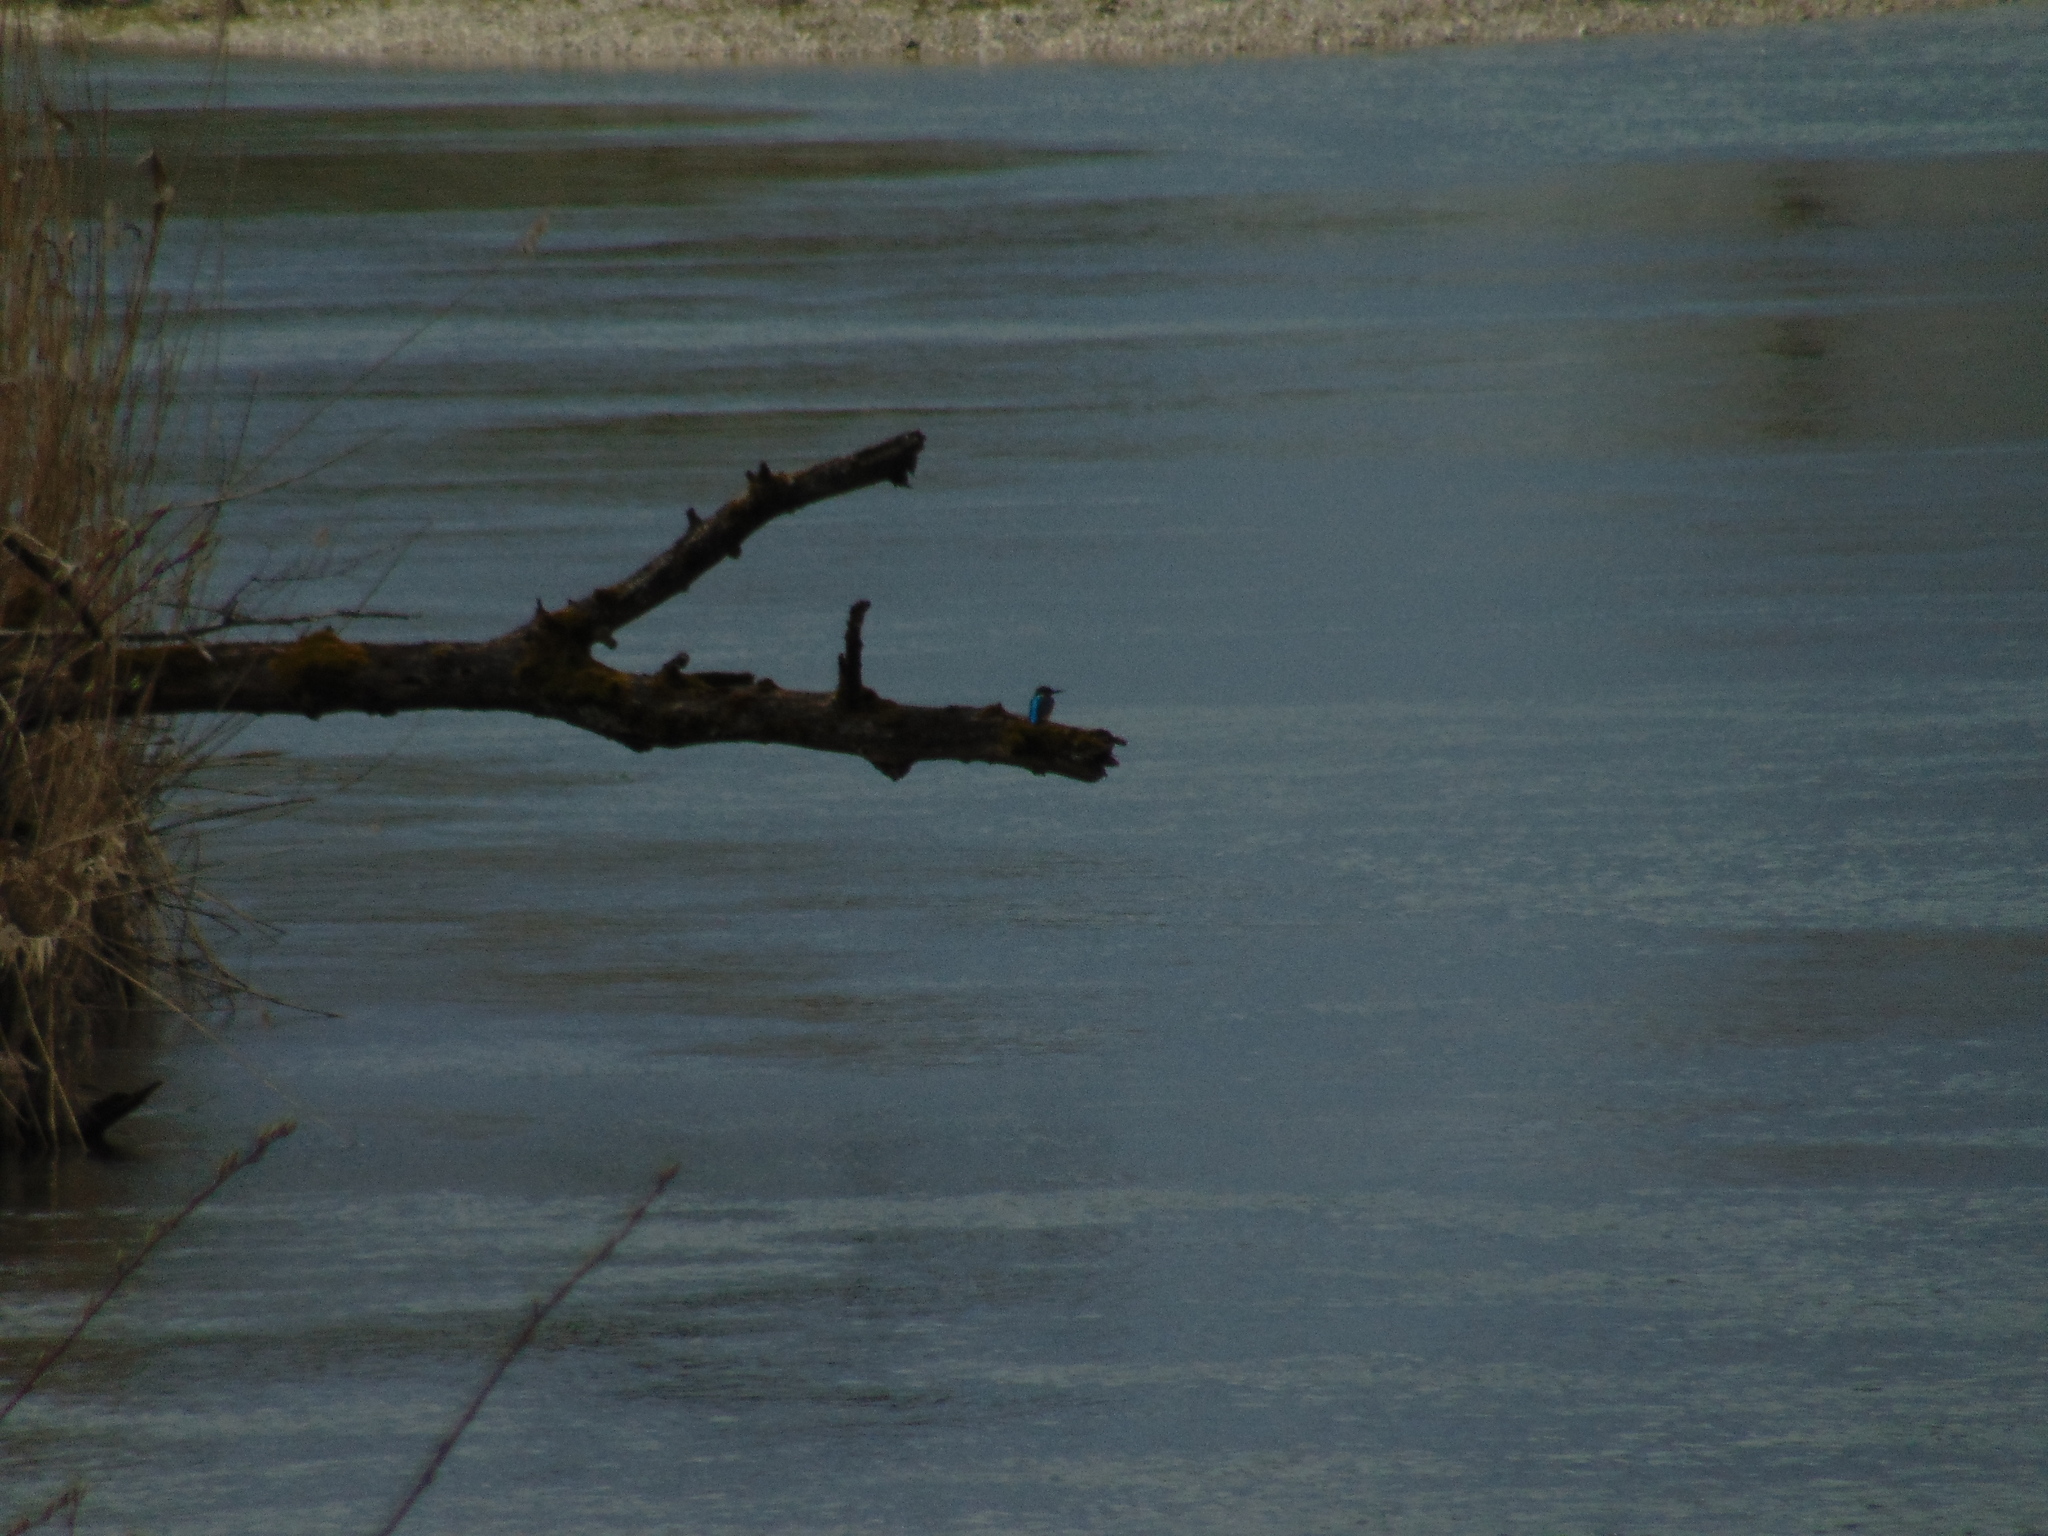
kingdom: Animalia
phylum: Chordata
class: Aves
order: Coraciiformes
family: Alcedinidae
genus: Alcedo
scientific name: Alcedo atthis
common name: Common kingfisher
